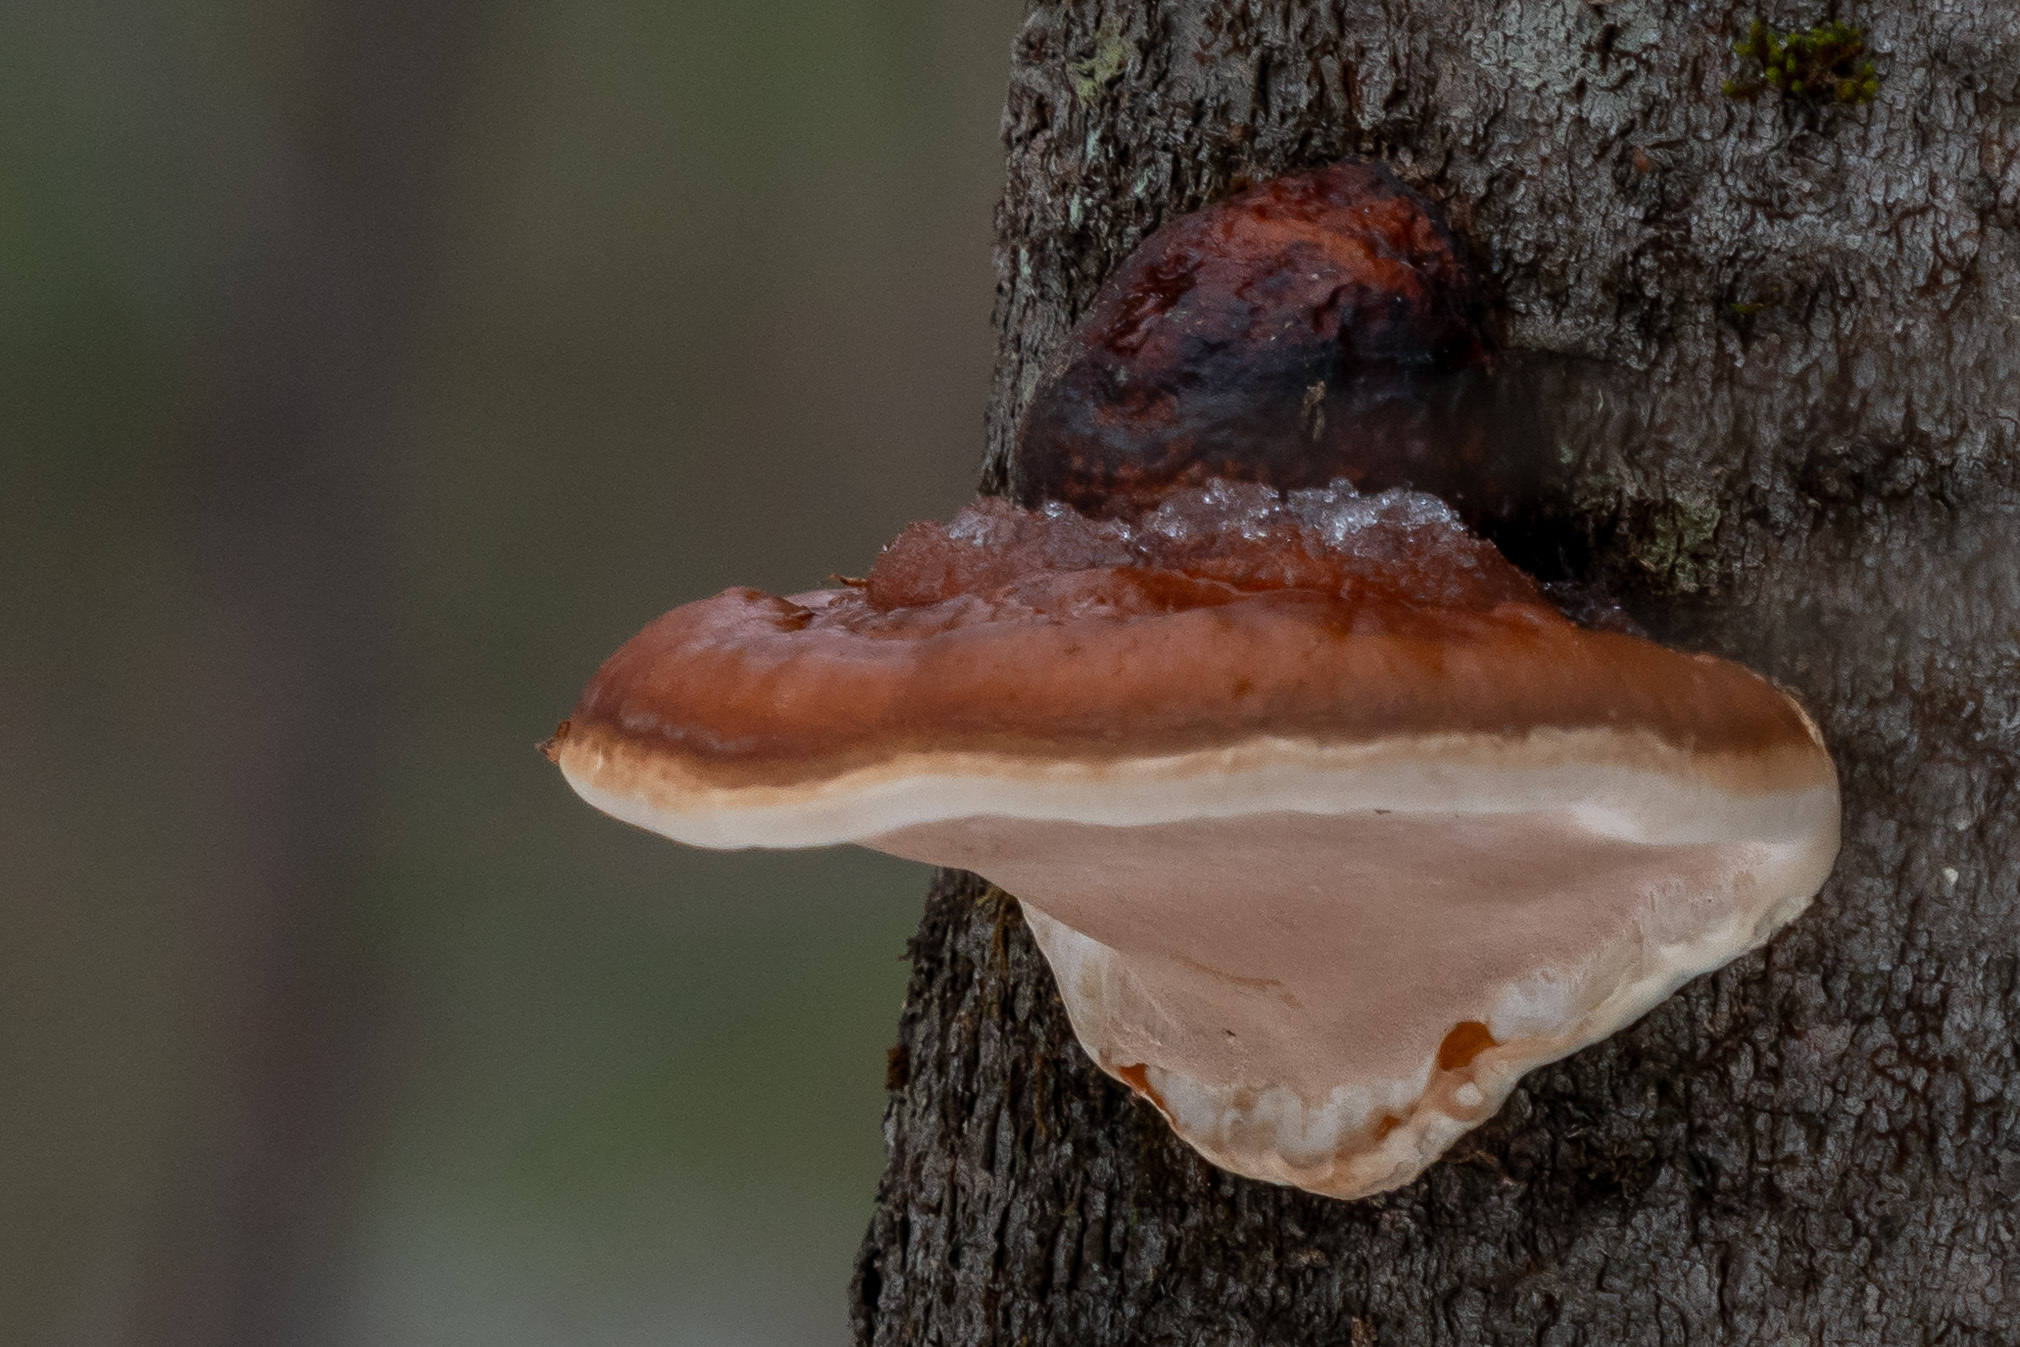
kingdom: Fungi
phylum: Basidiomycota
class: Agaricomycetes
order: Polyporales
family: Fomitopsidaceae
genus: Fomitopsis
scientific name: Fomitopsis mounceae
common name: Northern red belt
